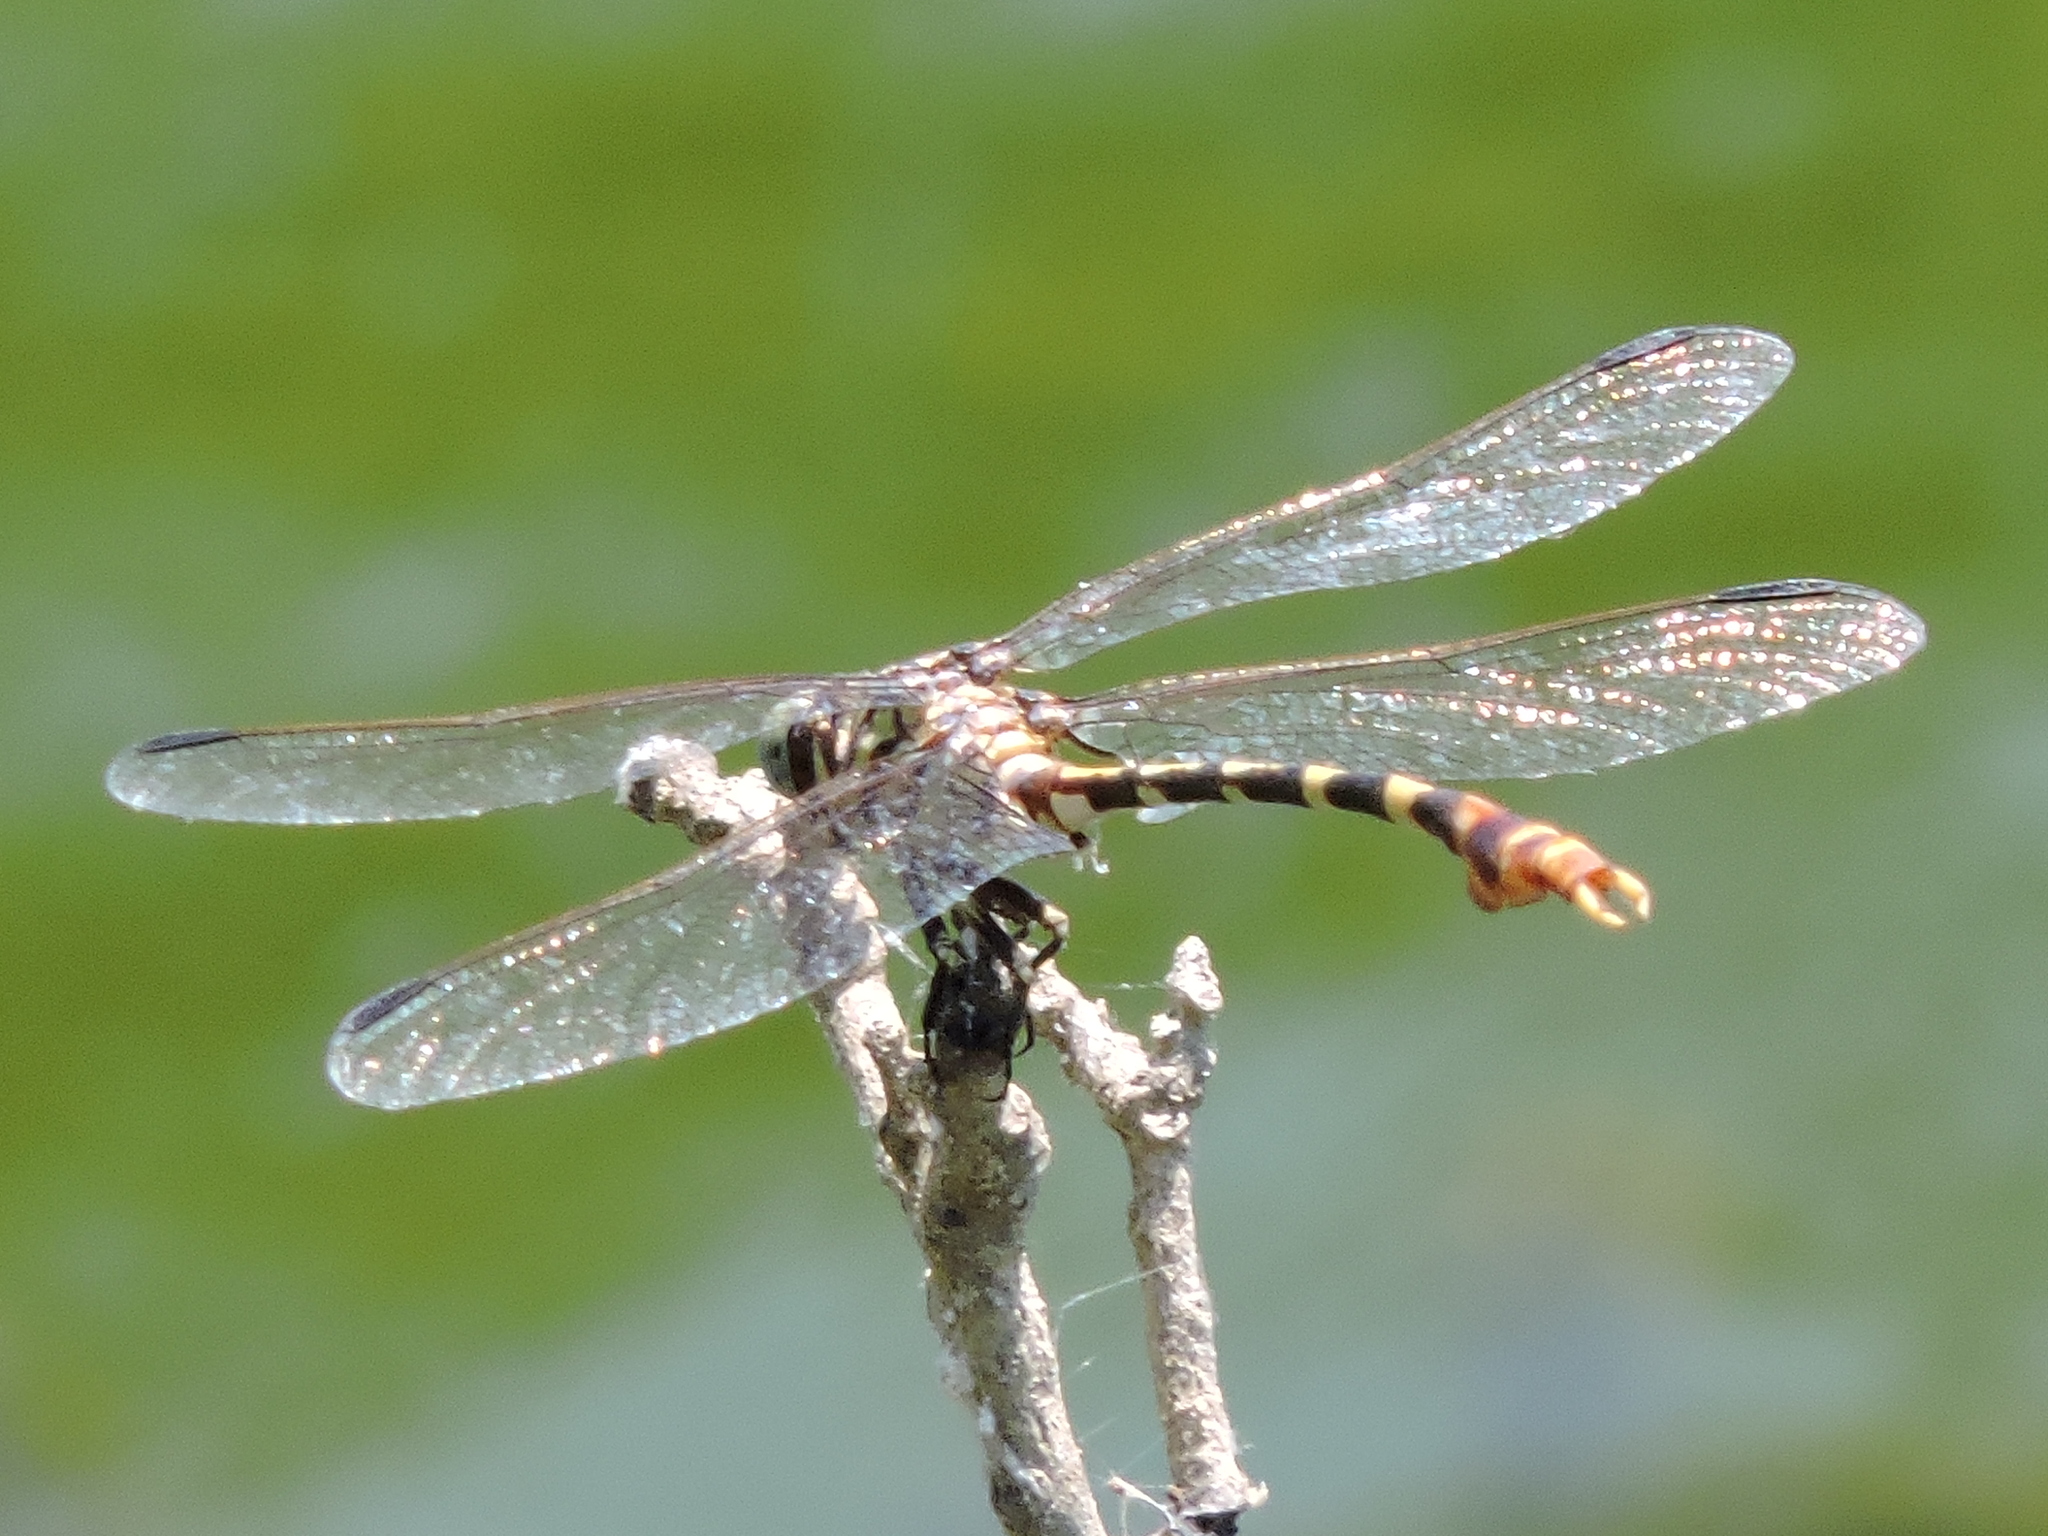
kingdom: Animalia
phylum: Arthropoda
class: Insecta
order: Odonata
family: Gomphidae
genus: Phyllogomphoides
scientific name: Phyllogomphoides stigmatus
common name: Four-striped leaftail
